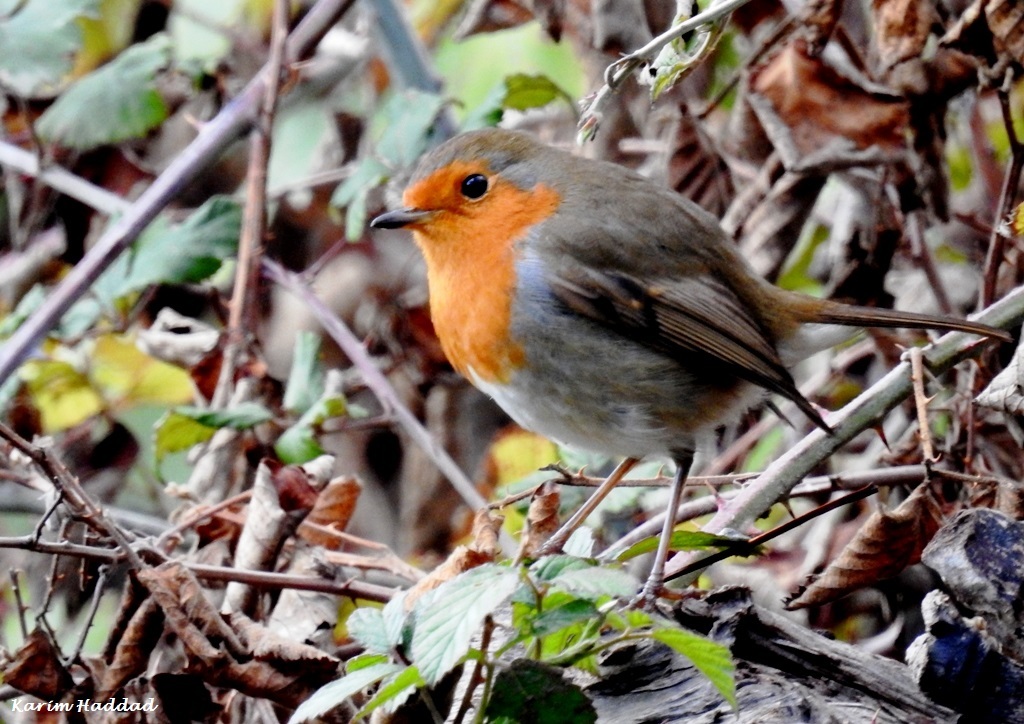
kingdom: Animalia
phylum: Chordata
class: Aves
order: Passeriformes
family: Muscicapidae
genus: Erithacus
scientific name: Erithacus rubecula
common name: European robin
